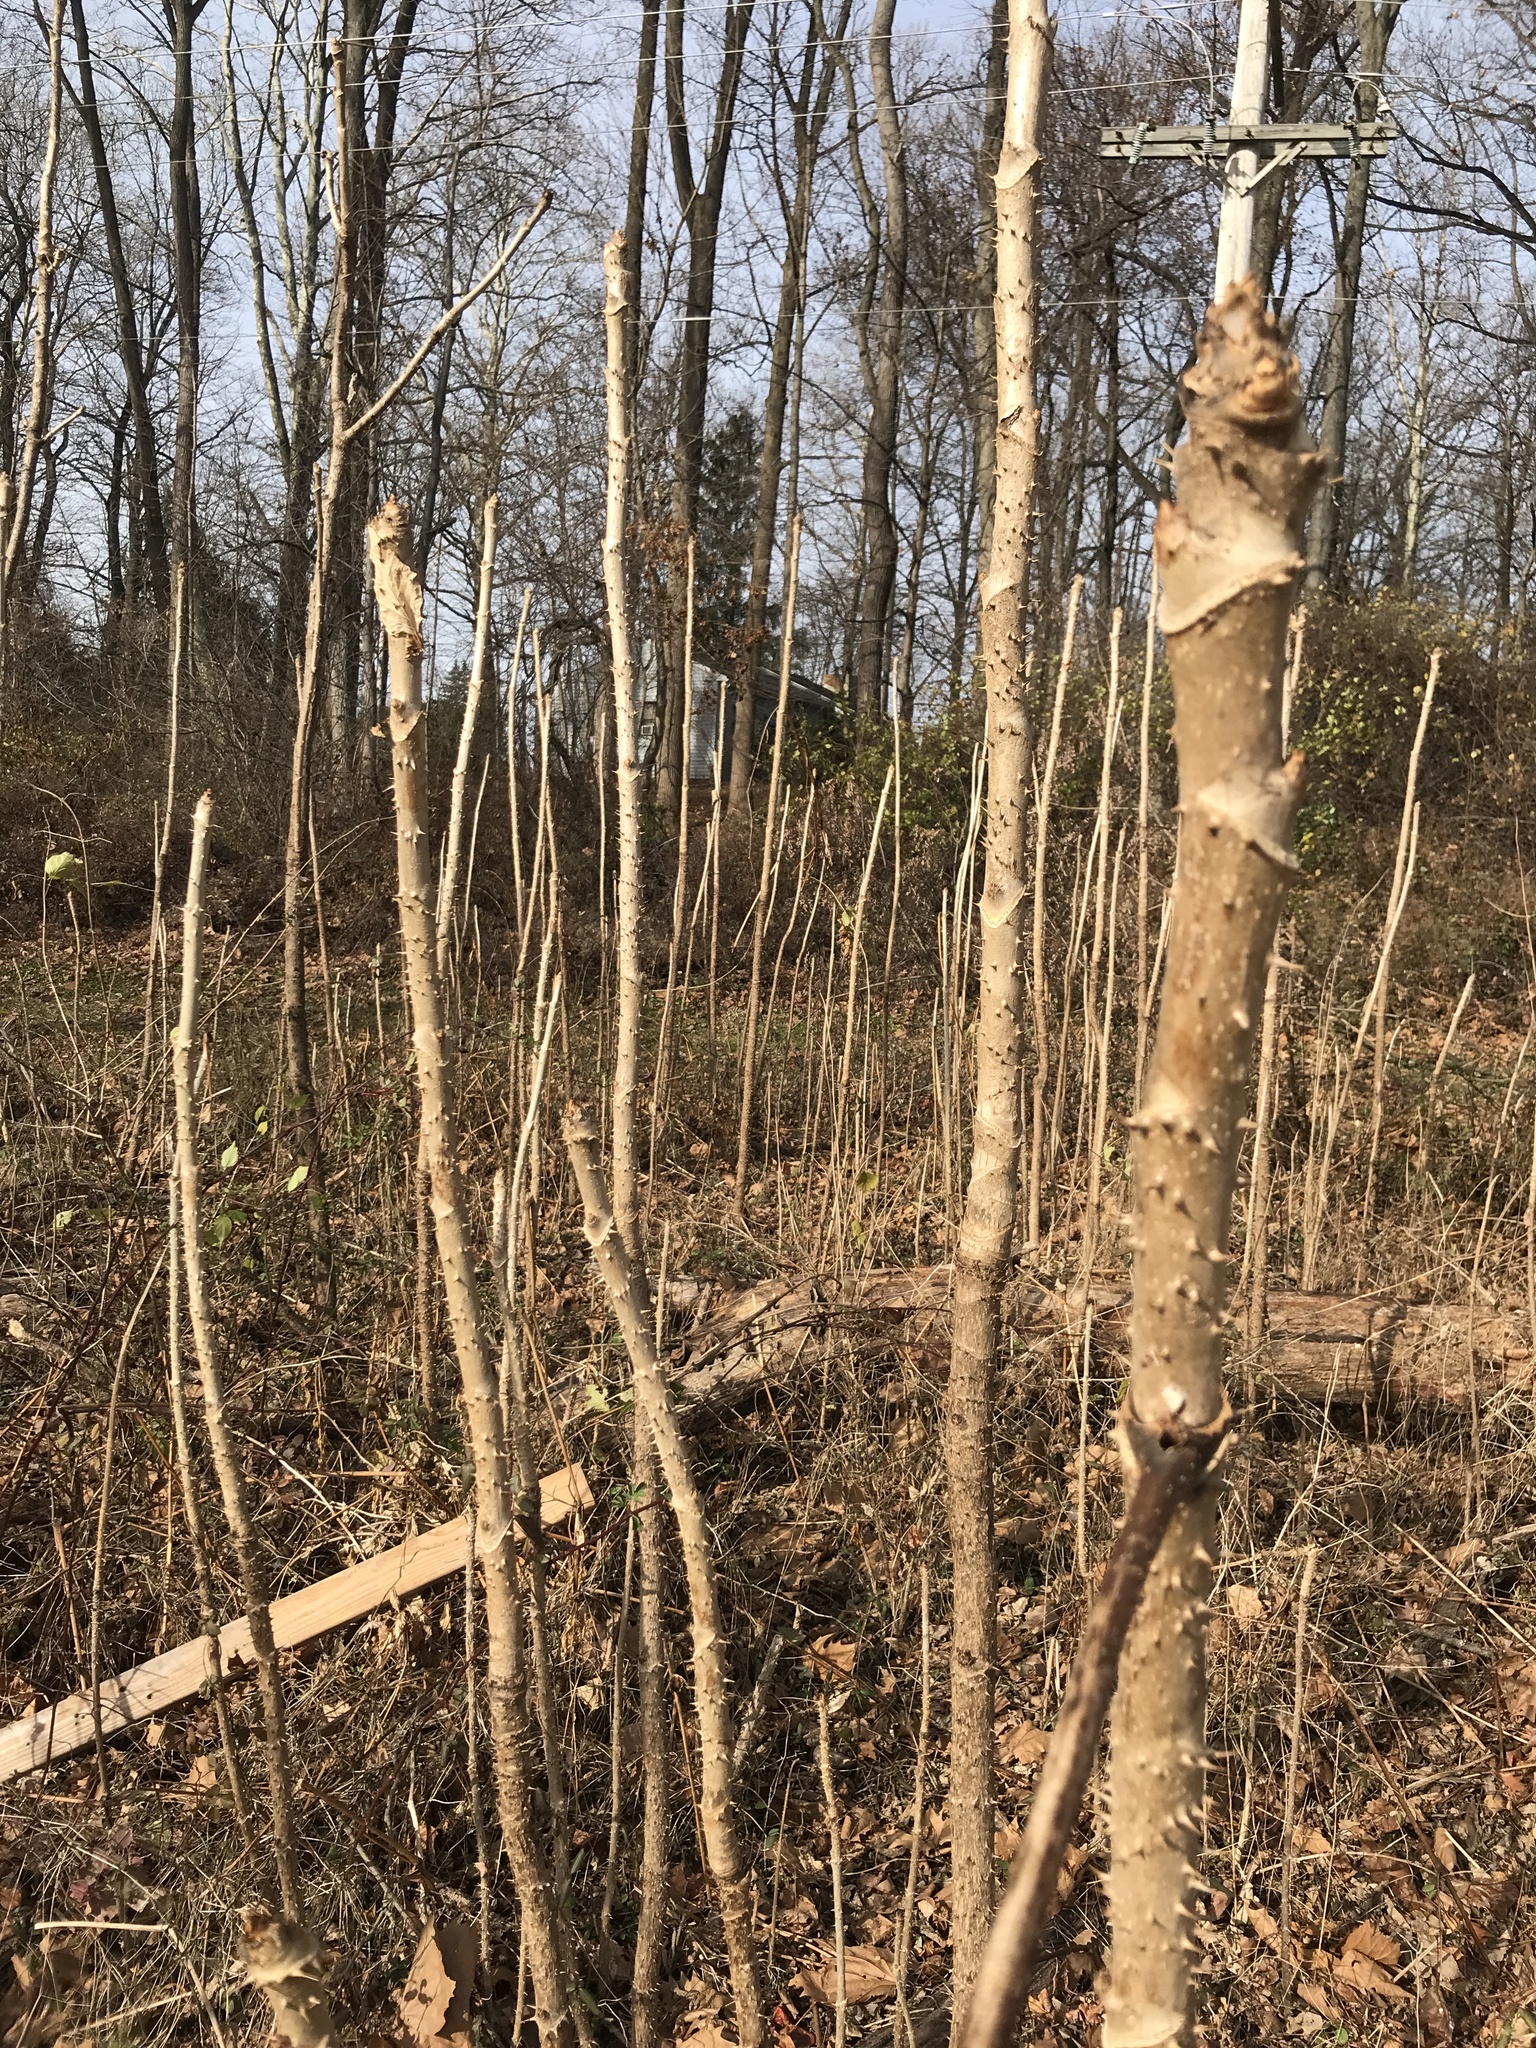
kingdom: Plantae
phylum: Tracheophyta
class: Magnoliopsida
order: Apiales
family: Araliaceae
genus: Aralia
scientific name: Aralia elata
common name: Japanese angelica-tree
